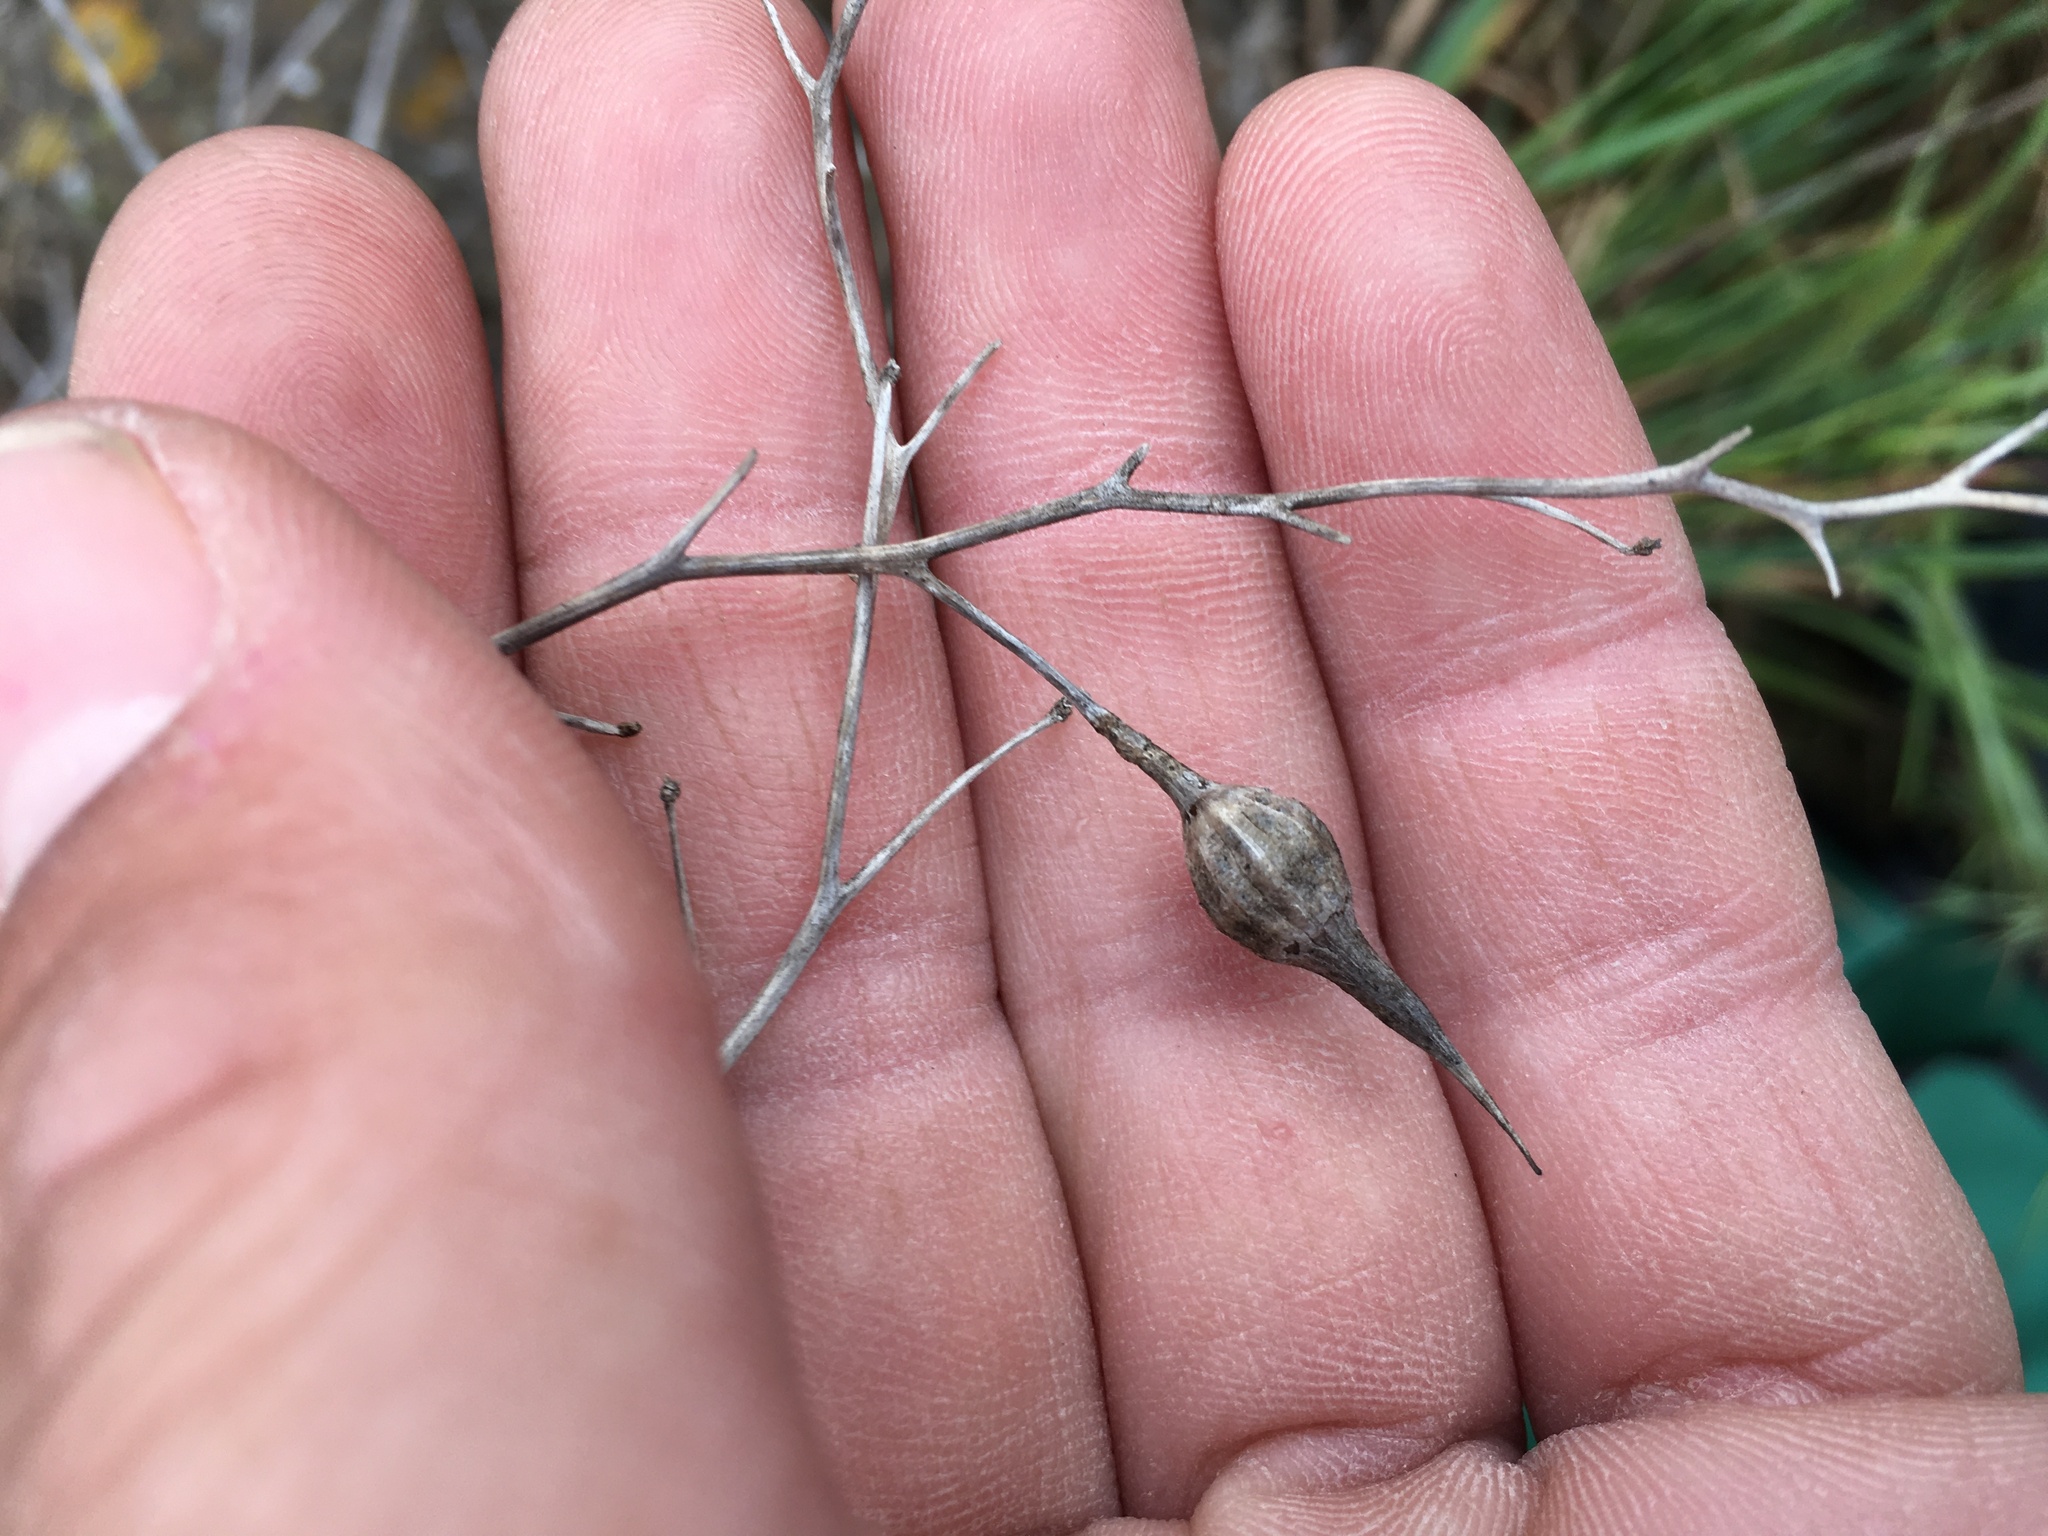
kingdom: Plantae
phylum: Tracheophyta
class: Magnoliopsida
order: Brassicales
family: Brassicaceae
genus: Raphanus
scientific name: Raphanus sativus
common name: Cultivated radish
